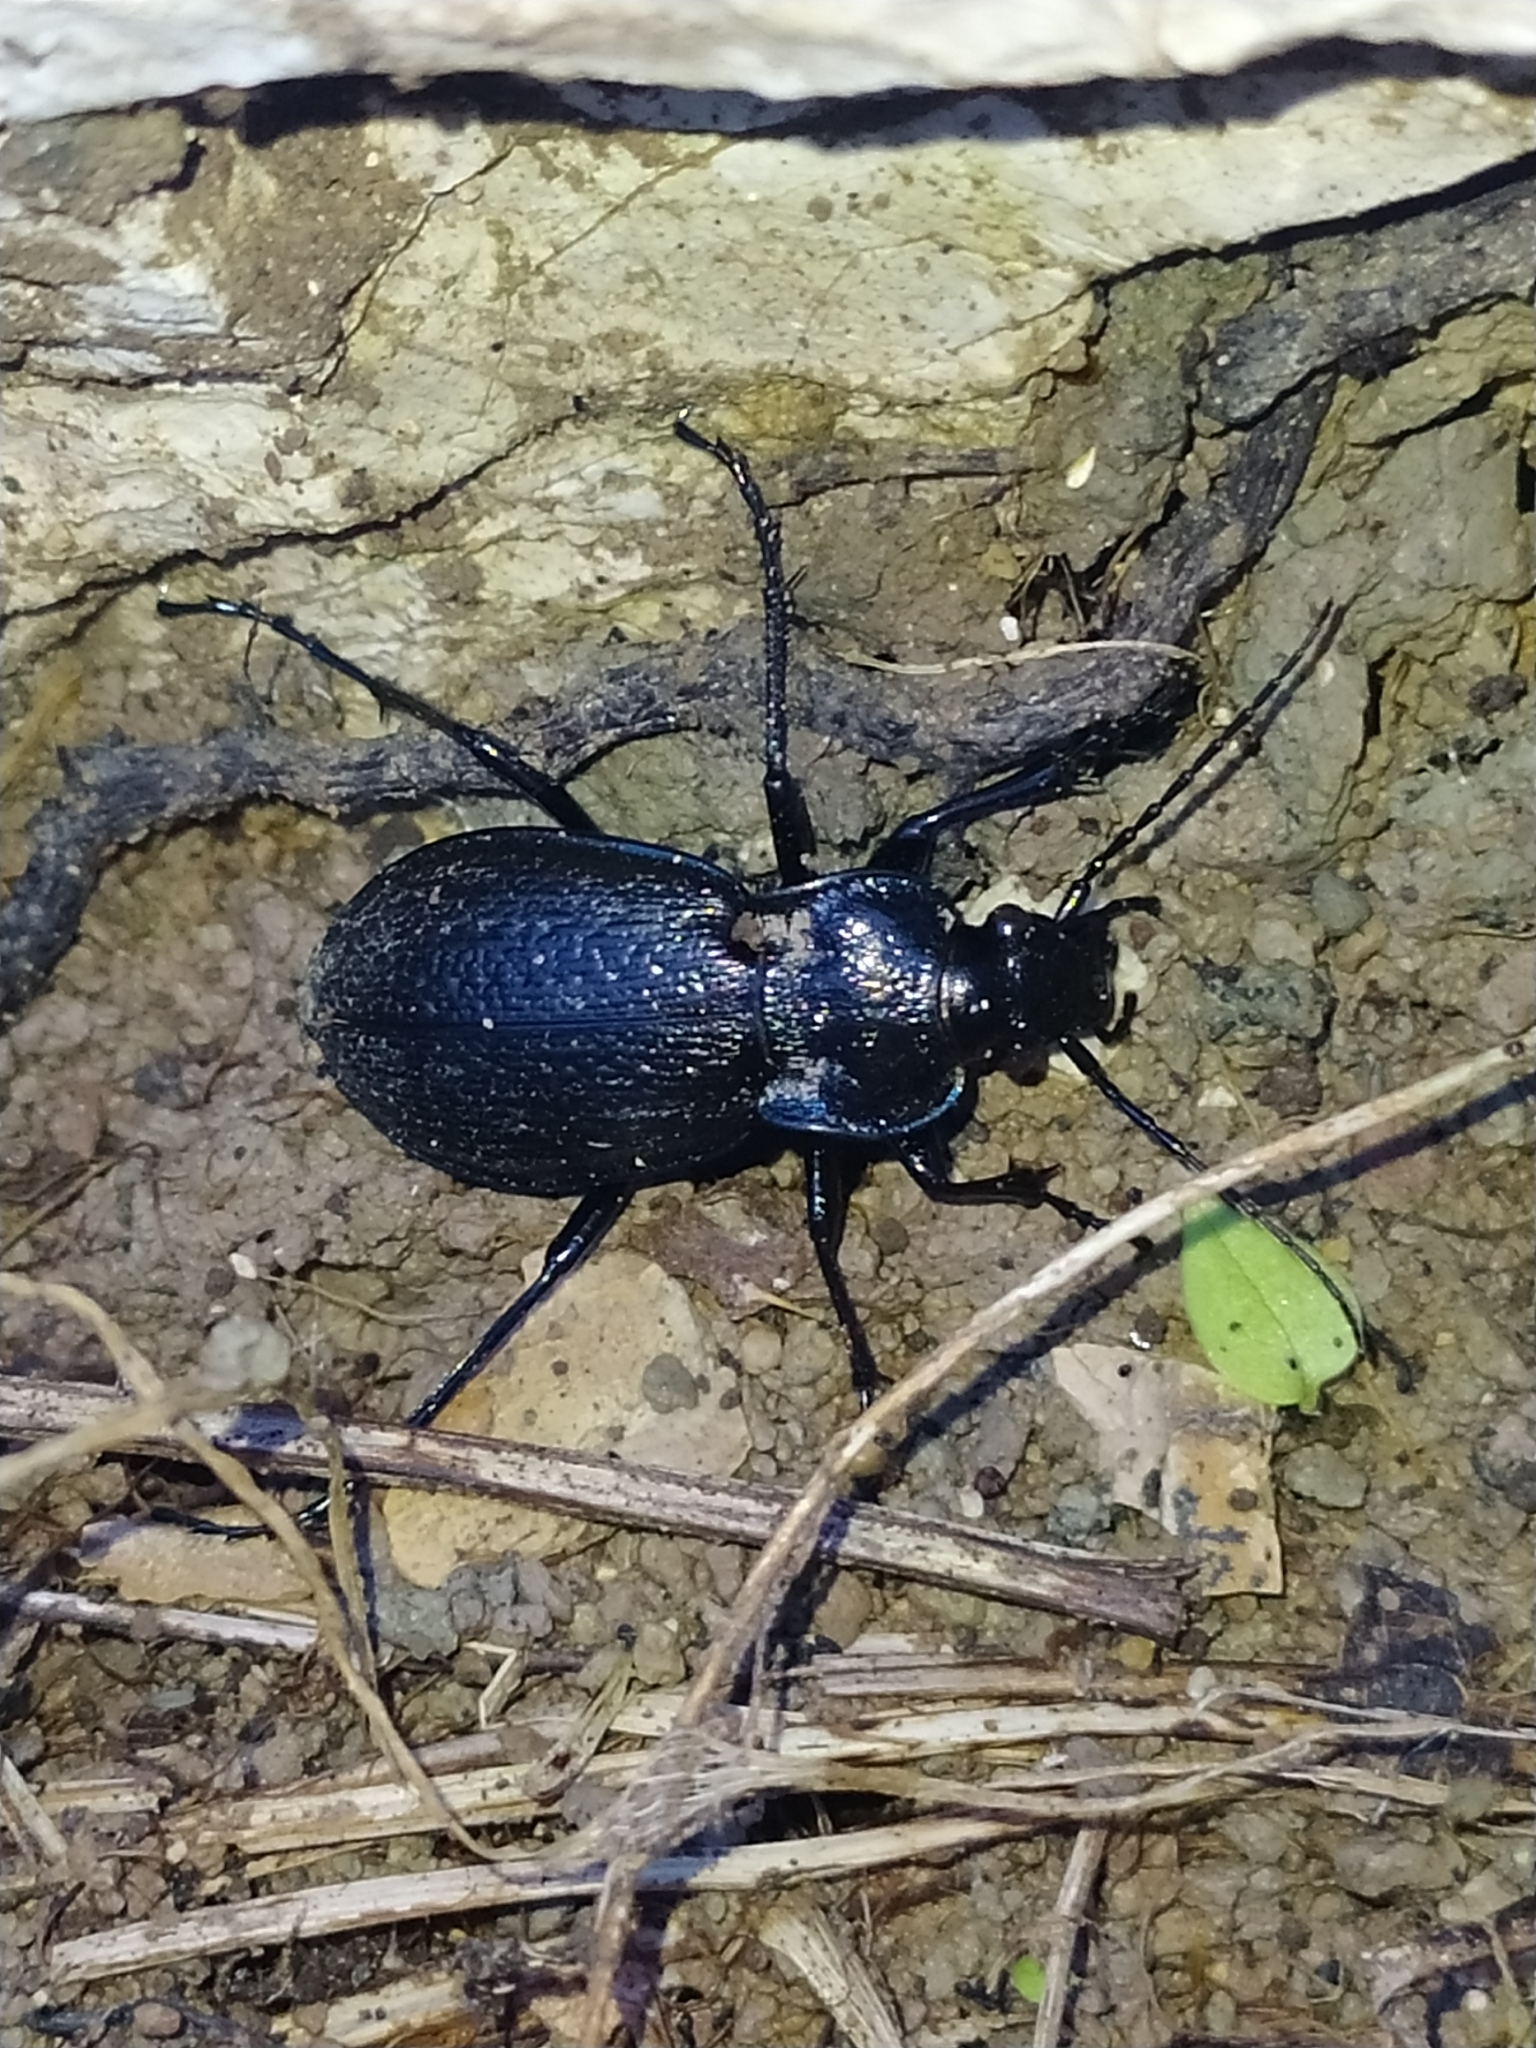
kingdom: Animalia
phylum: Arthropoda
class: Insecta
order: Coleoptera
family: Carabidae
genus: Carabus
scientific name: Carabus rossii
